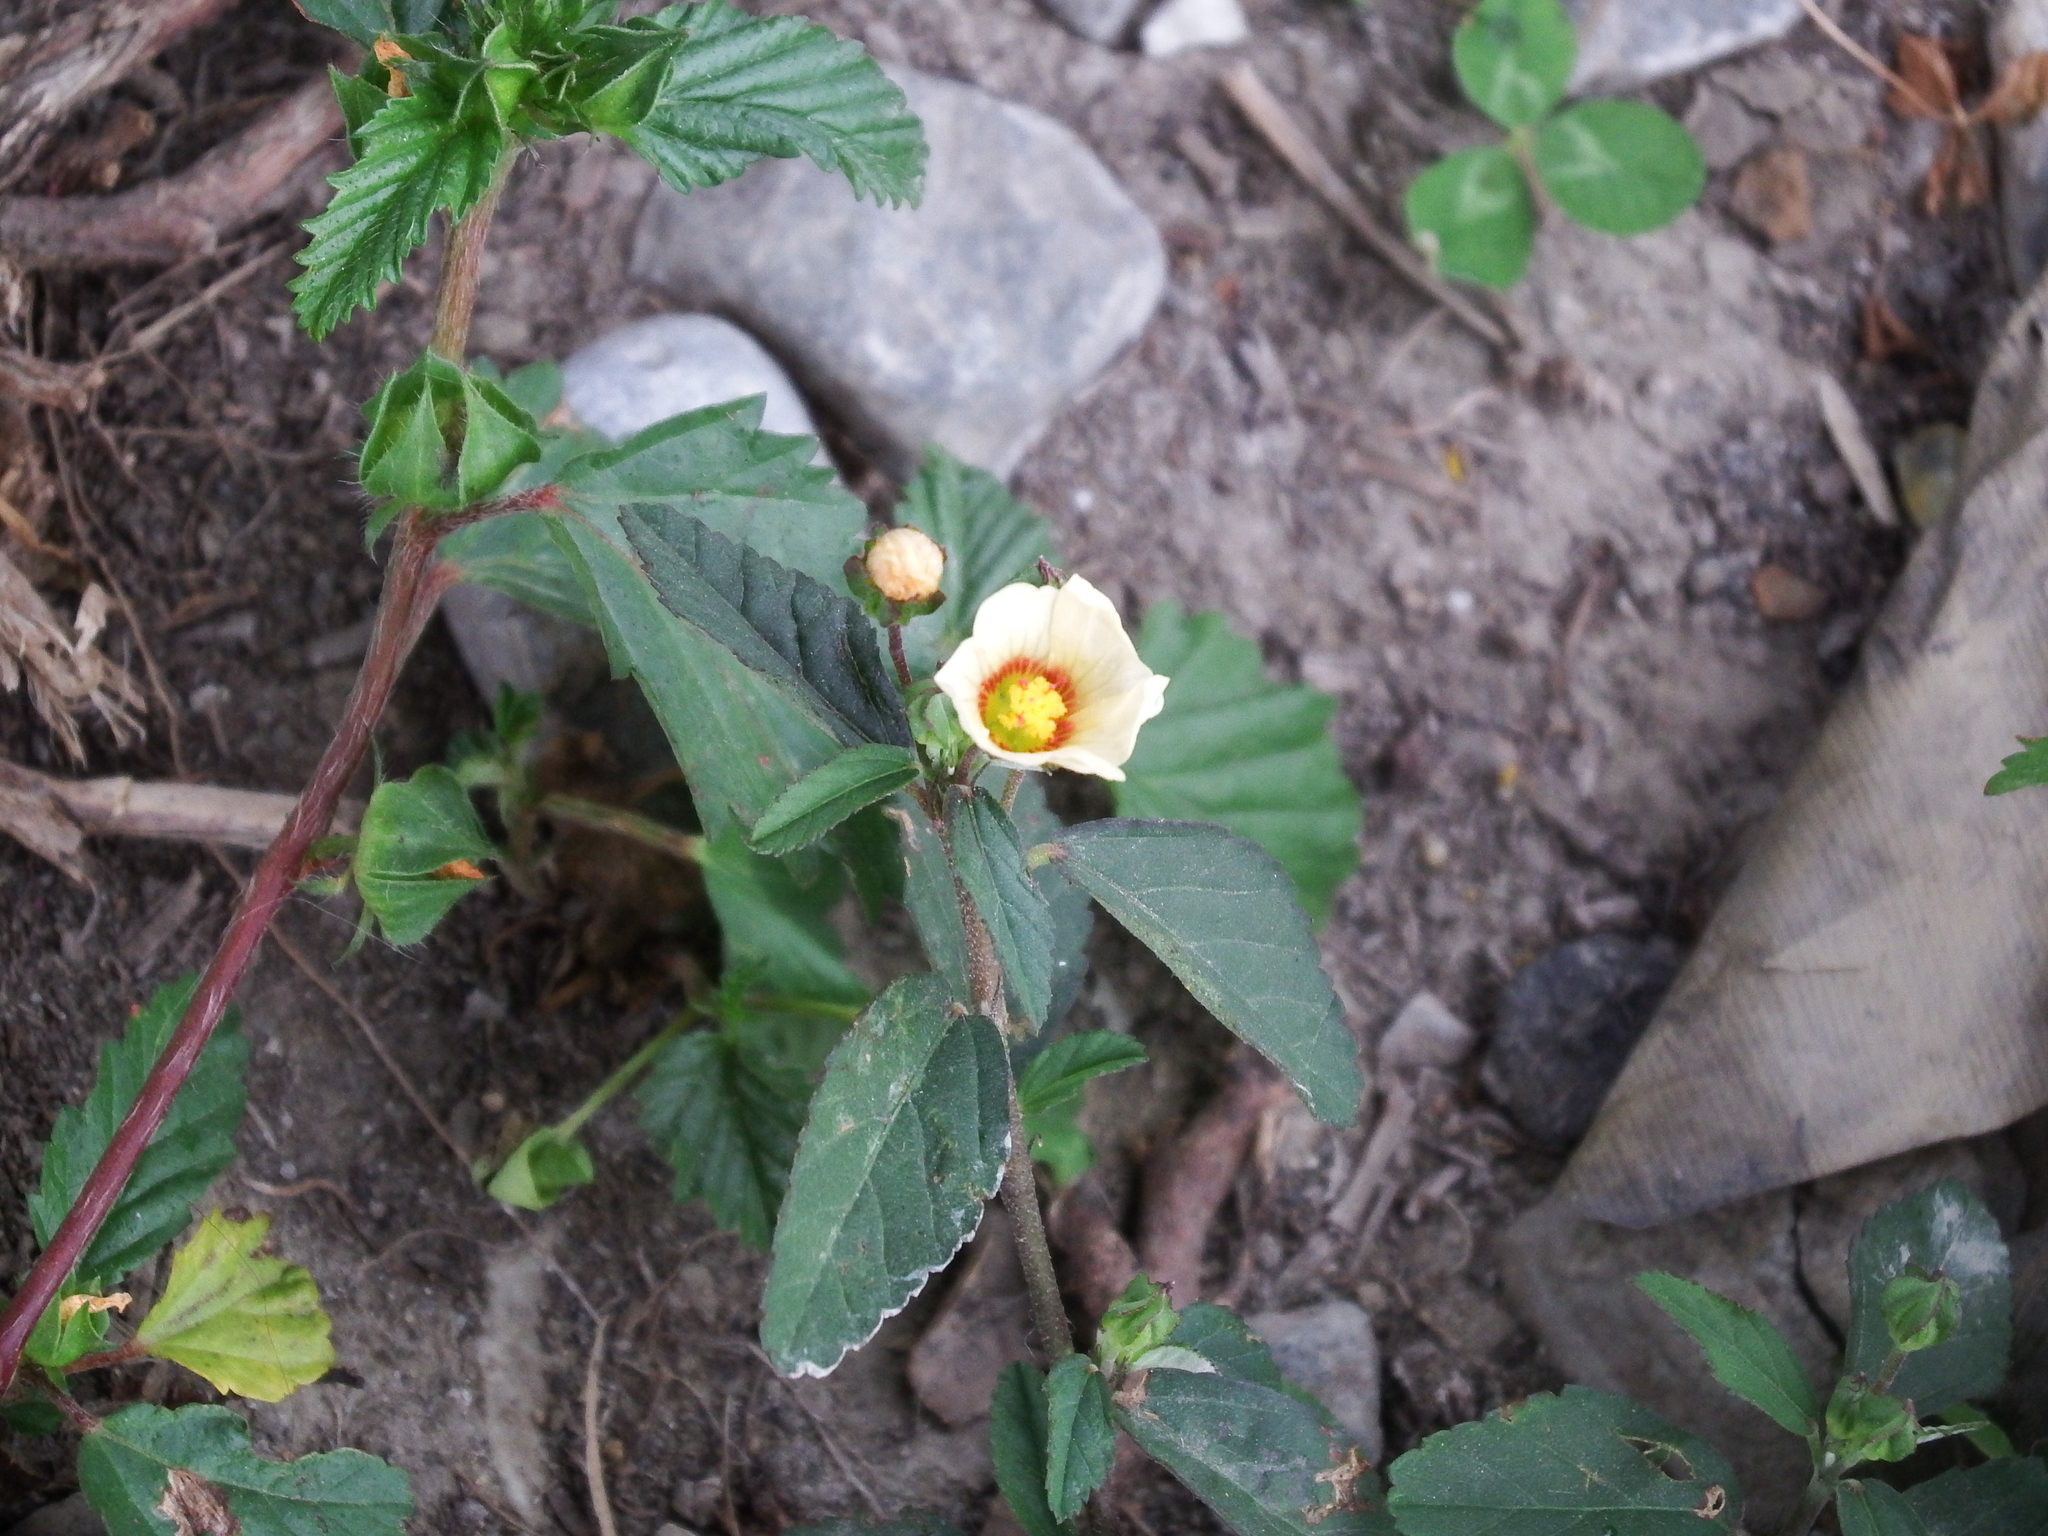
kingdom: Plantae
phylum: Tracheophyta
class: Magnoliopsida
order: Malvales
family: Malvaceae
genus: Malvastrum
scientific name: Malvastrum coromandelianum
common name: Threelobe false mallow
